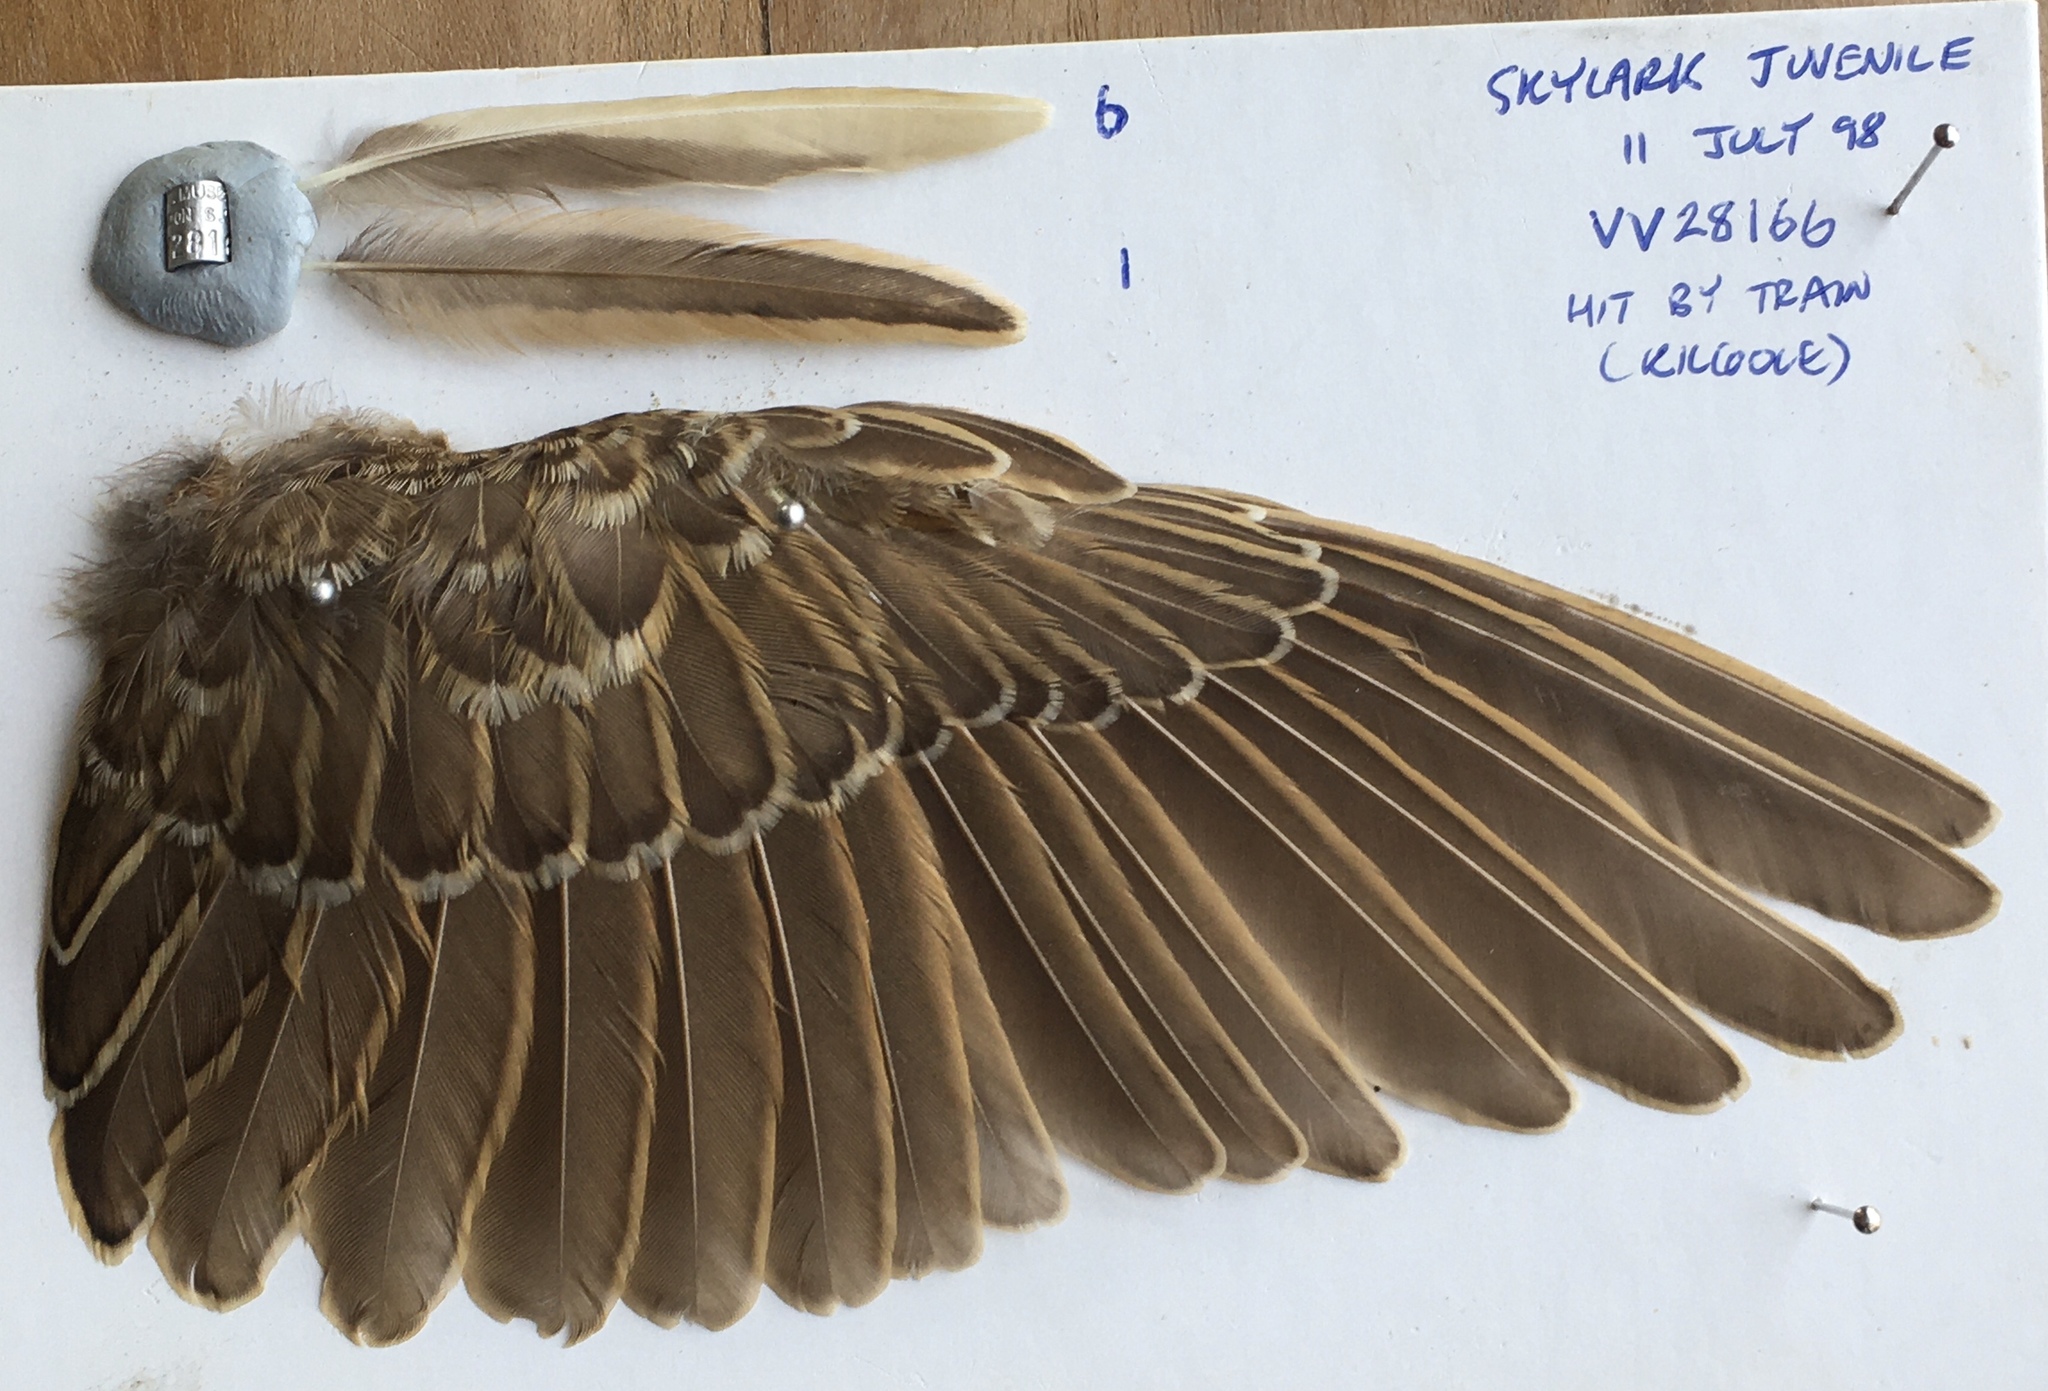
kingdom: Animalia
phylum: Chordata
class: Aves
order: Passeriformes
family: Alaudidae
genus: Alauda
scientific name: Alauda arvensis
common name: Eurasian skylark
